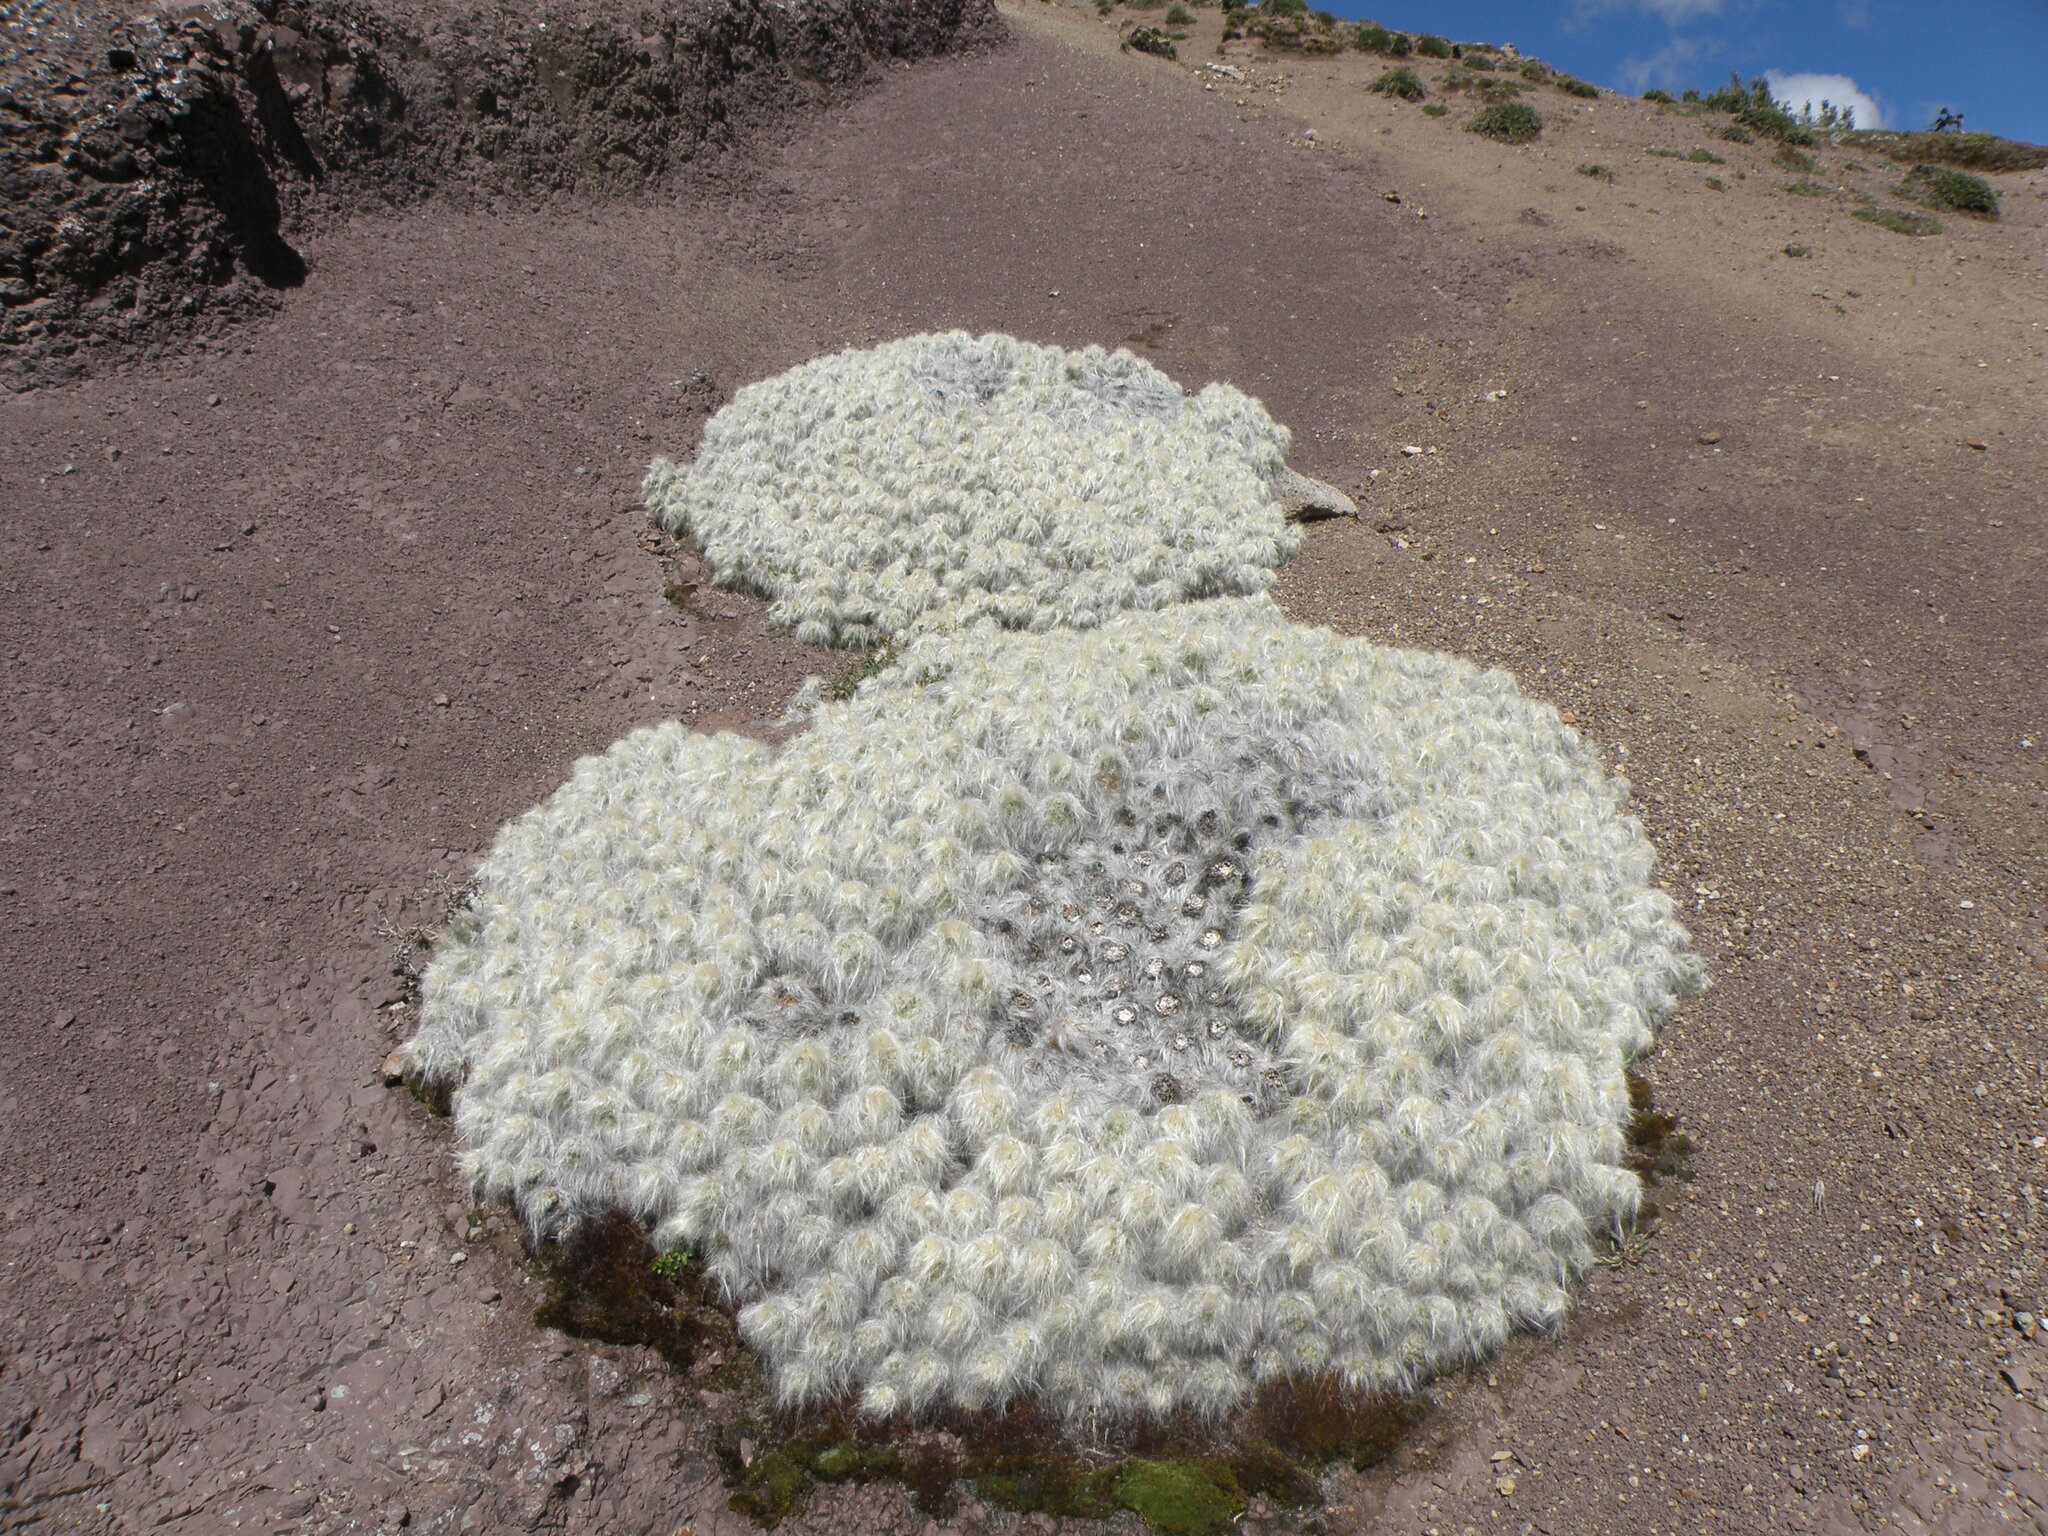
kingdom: Plantae
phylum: Tracheophyta
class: Magnoliopsida
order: Caryophyllales
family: Cactaceae
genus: Austrocylindropuntia
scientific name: Austrocylindropuntia floccosa
